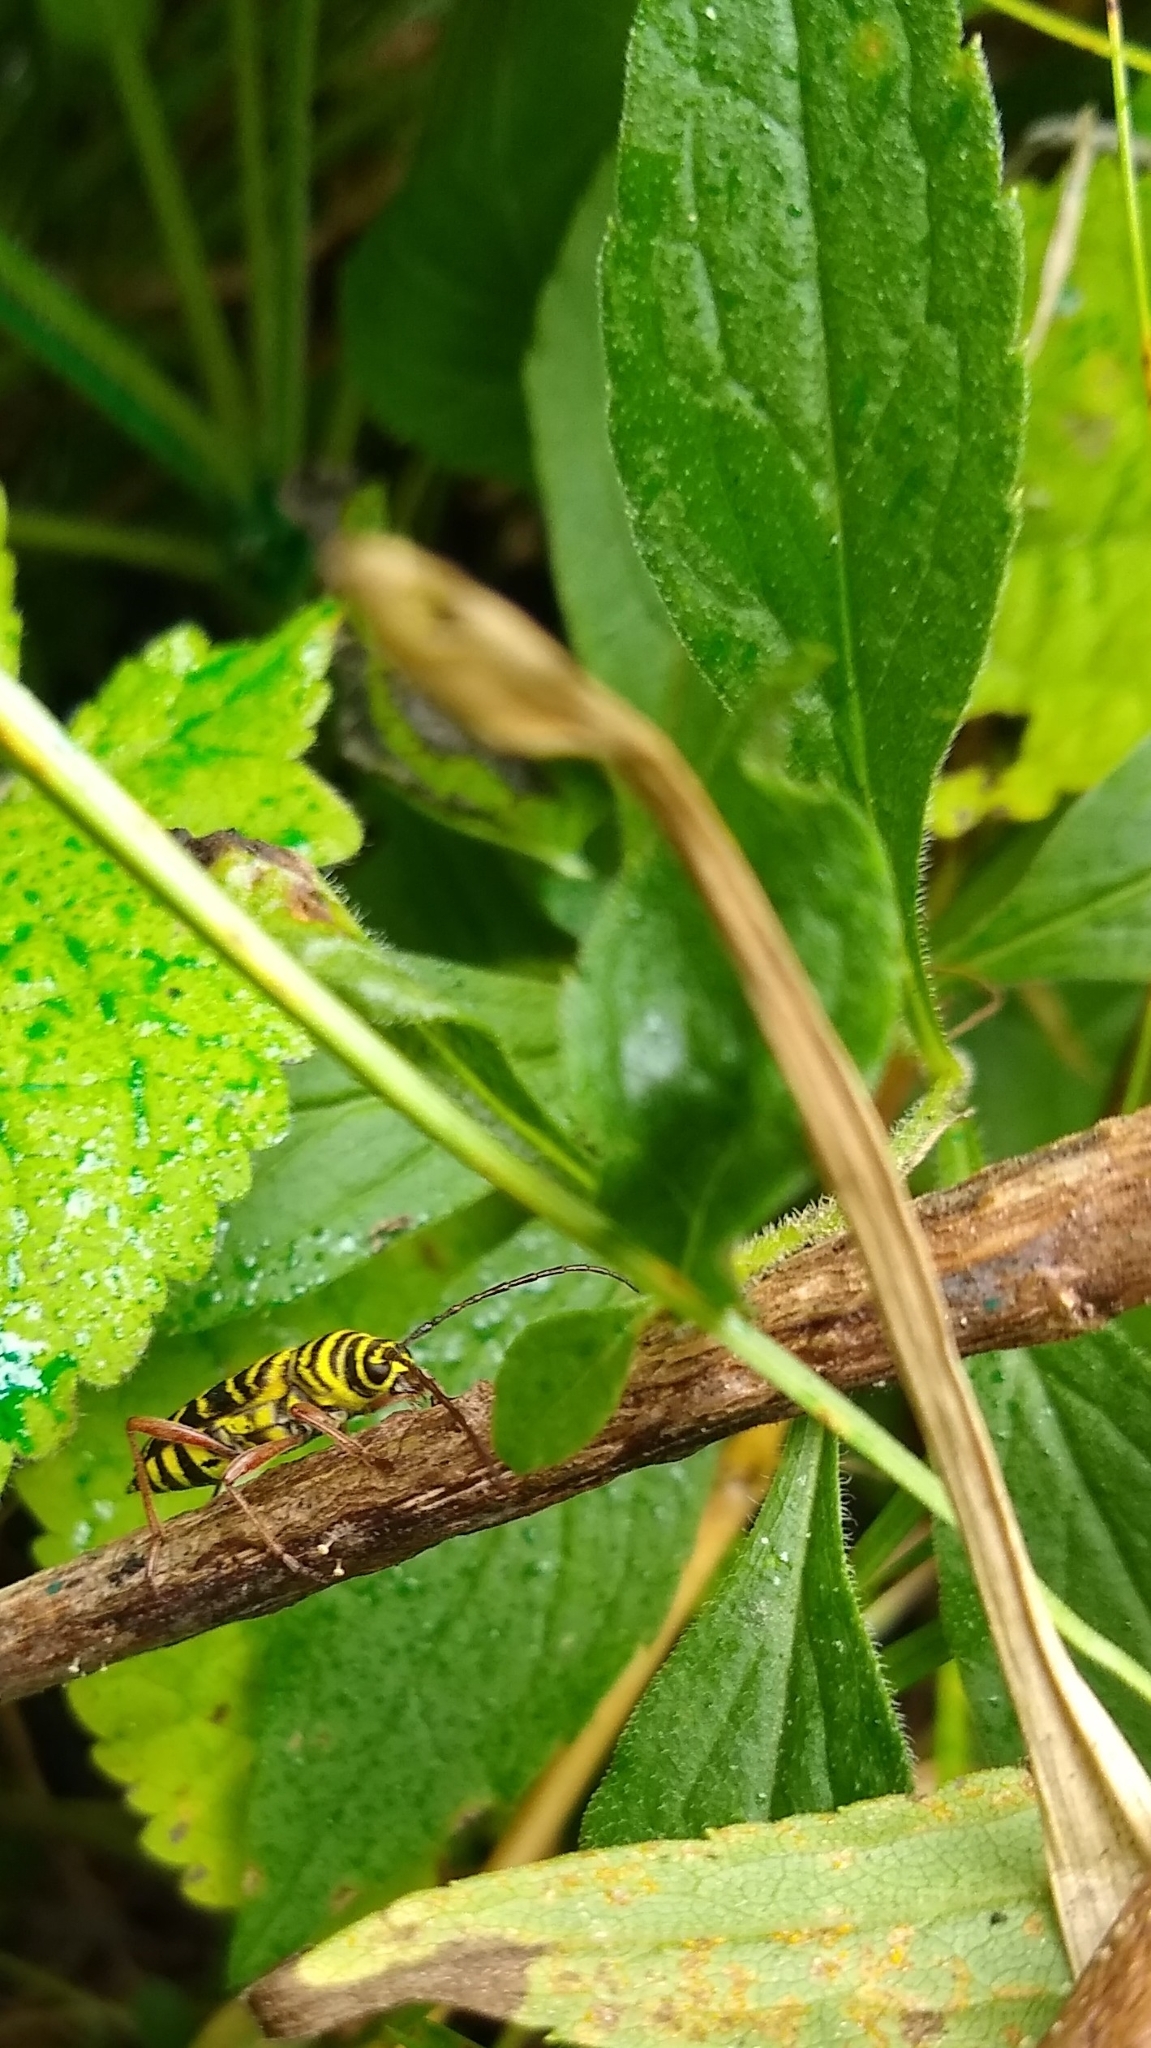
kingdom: Animalia
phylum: Arthropoda
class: Insecta
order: Coleoptera
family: Cerambycidae
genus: Megacyllene
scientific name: Megacyllene robiniae
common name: Locust borer
